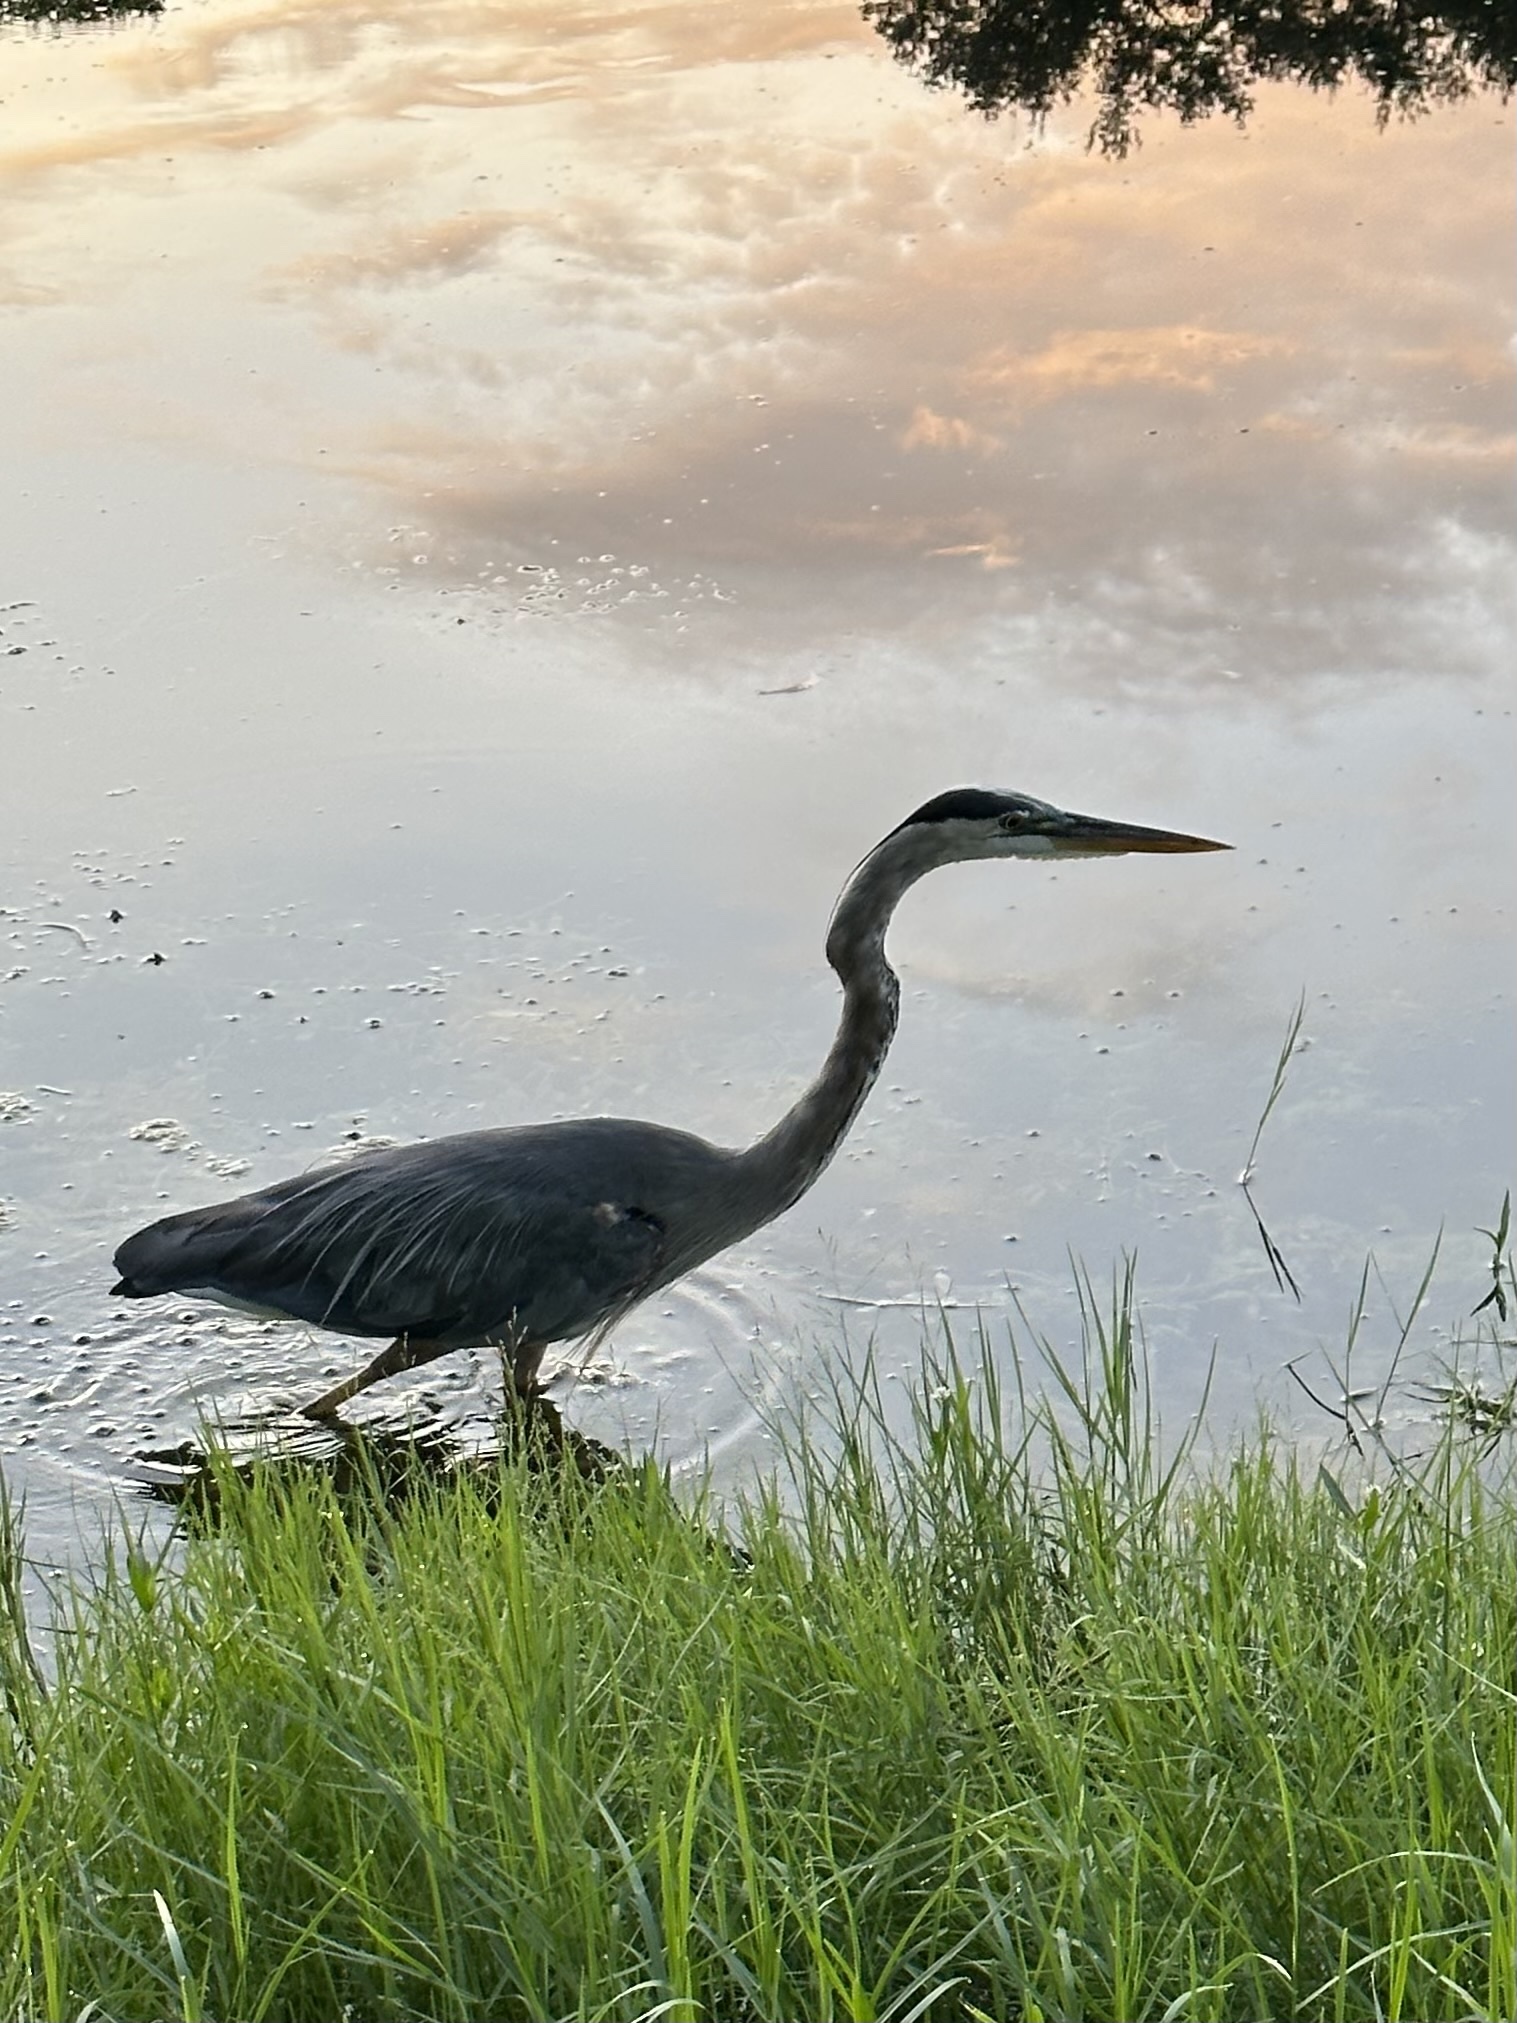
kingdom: Animalia
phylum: Chordata
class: Aves
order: Pelecaniformes
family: Ardeidae
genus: Ardea
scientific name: Ardea herodias
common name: Great blue heron
